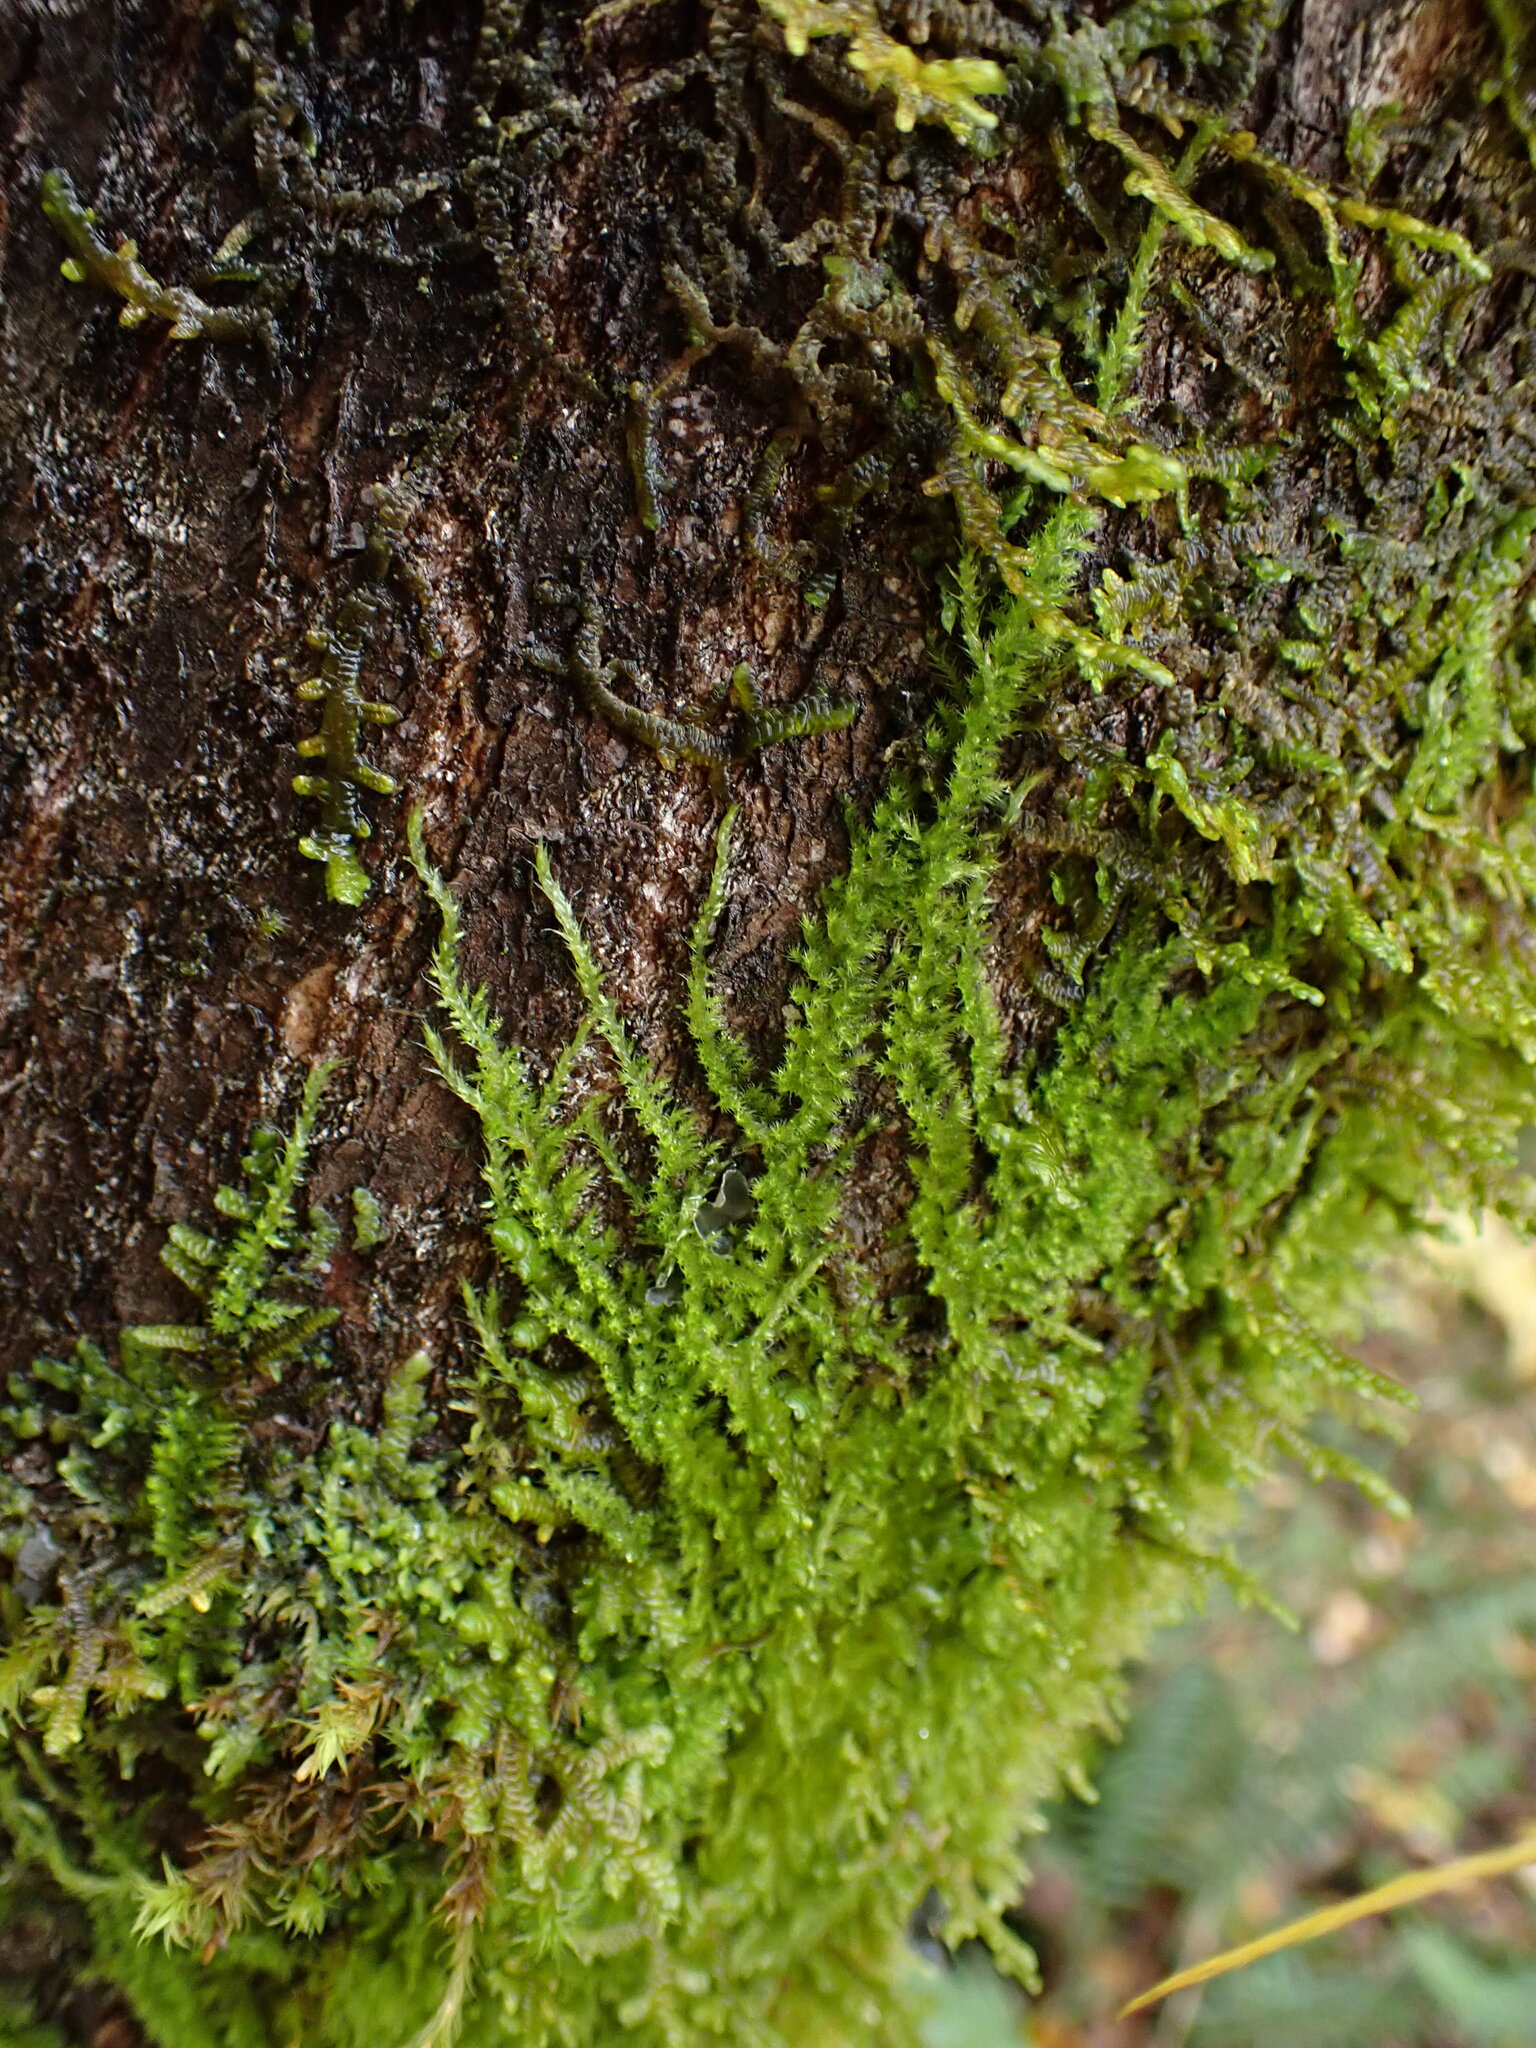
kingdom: Plantae
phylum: Bryophyta
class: Bryopsida
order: Hypnales
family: Brachytheciaceae
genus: Homalothecium
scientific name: Homalothecium nuttallii
